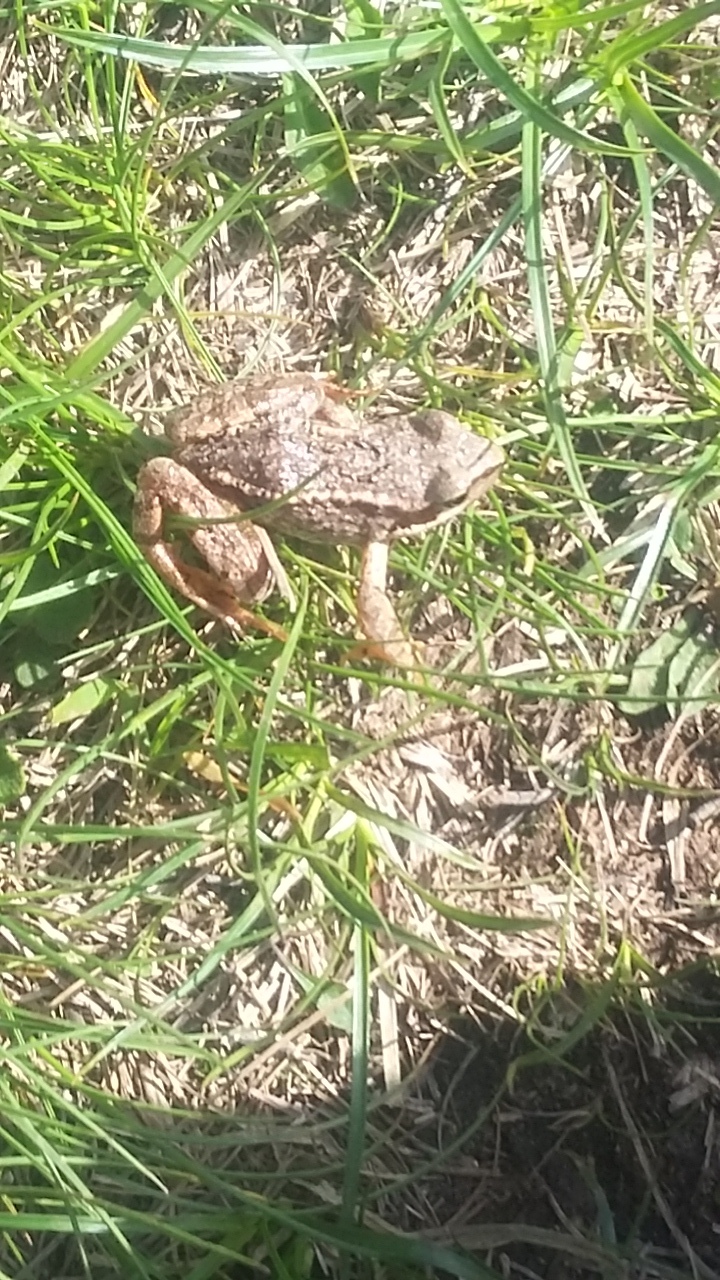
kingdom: Animalia
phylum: Chordata
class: Amphibia
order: Anura
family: Ranidae
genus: Rana
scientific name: Rana temporaria
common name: Common frog
